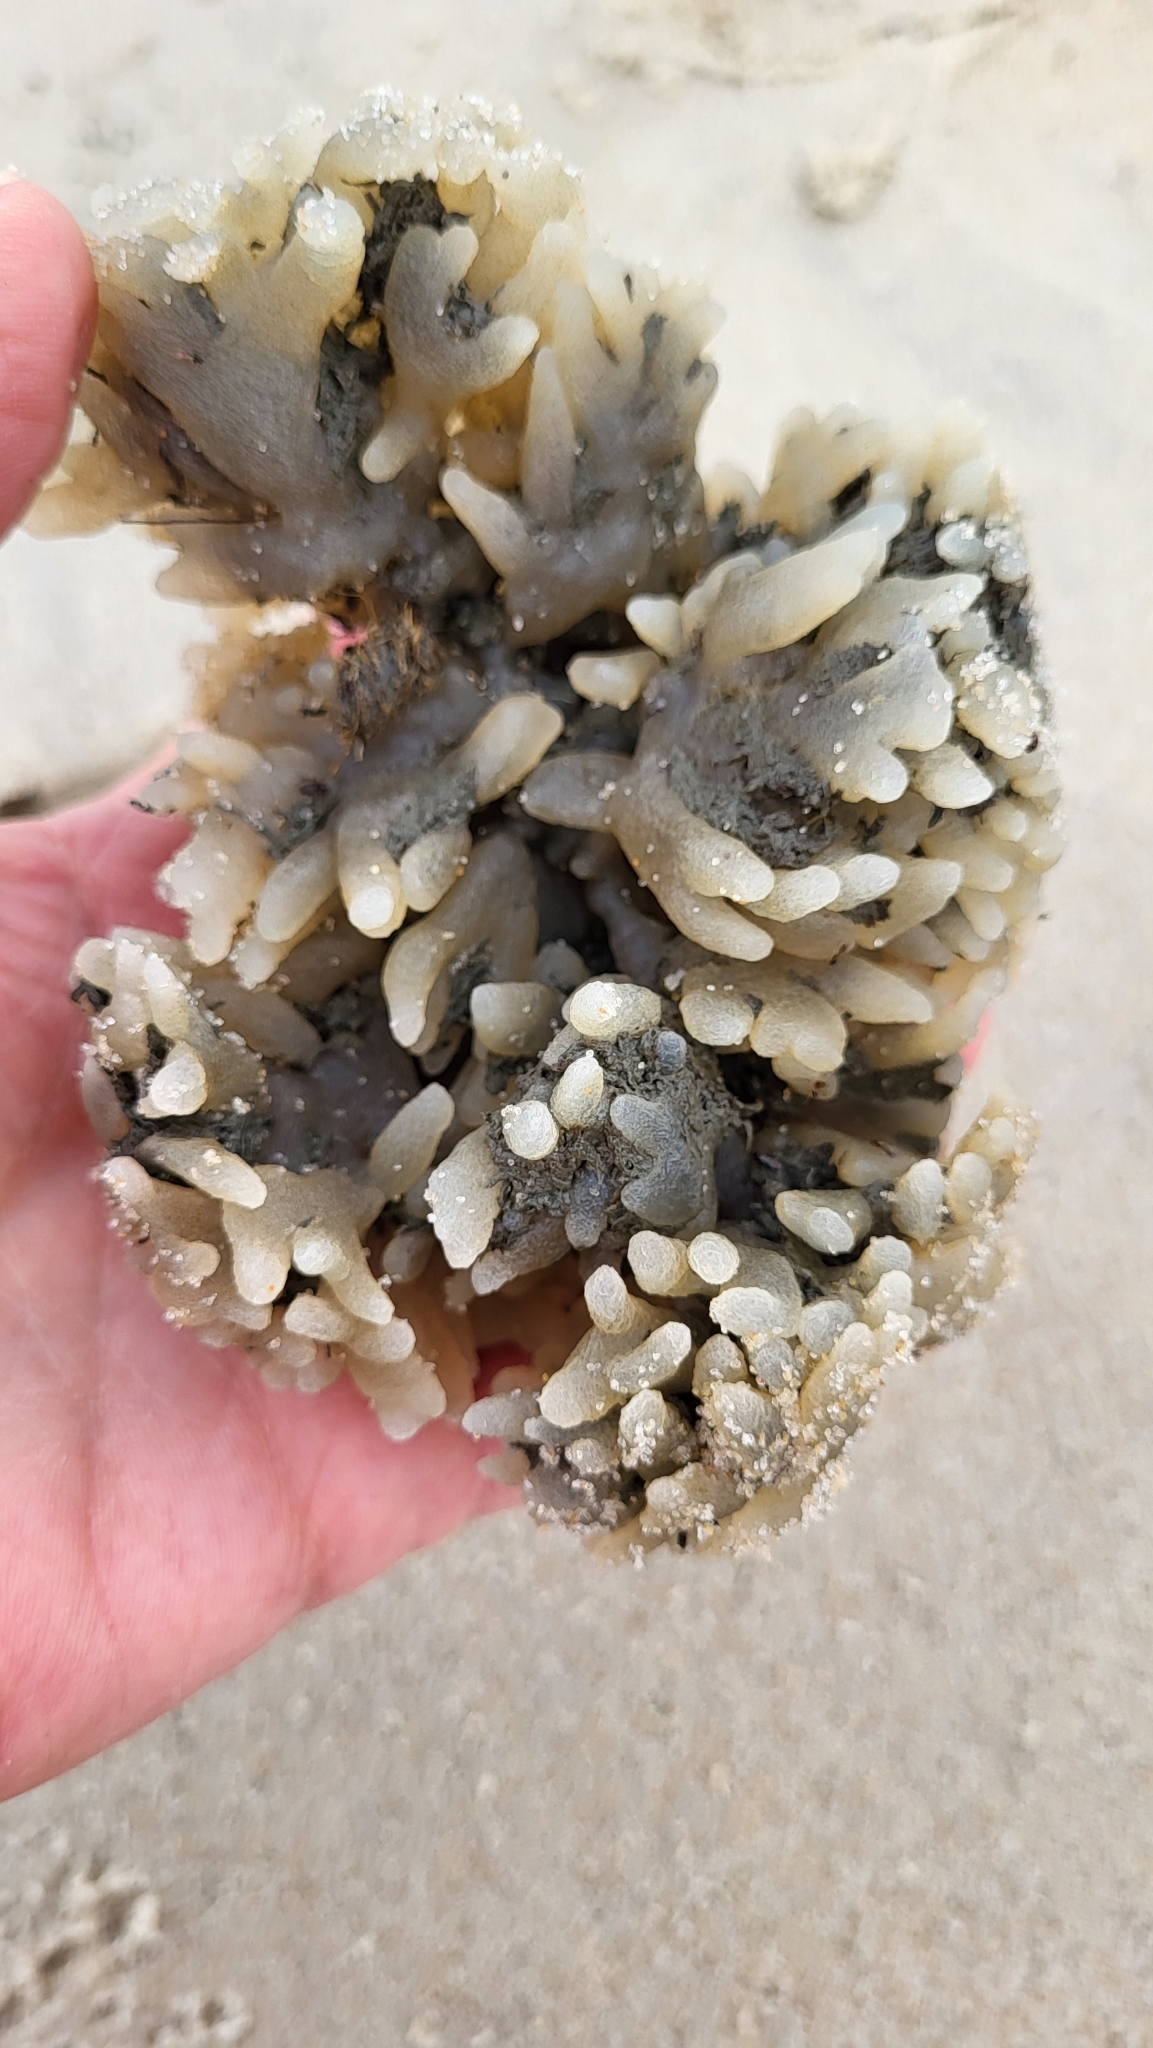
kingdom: Animalia
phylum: Bryozoa
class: Gymnolaemata
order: Ctenostomatida
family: Alcyonidiidae
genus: Alcyonidium
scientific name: Alcyonidium hauffi
